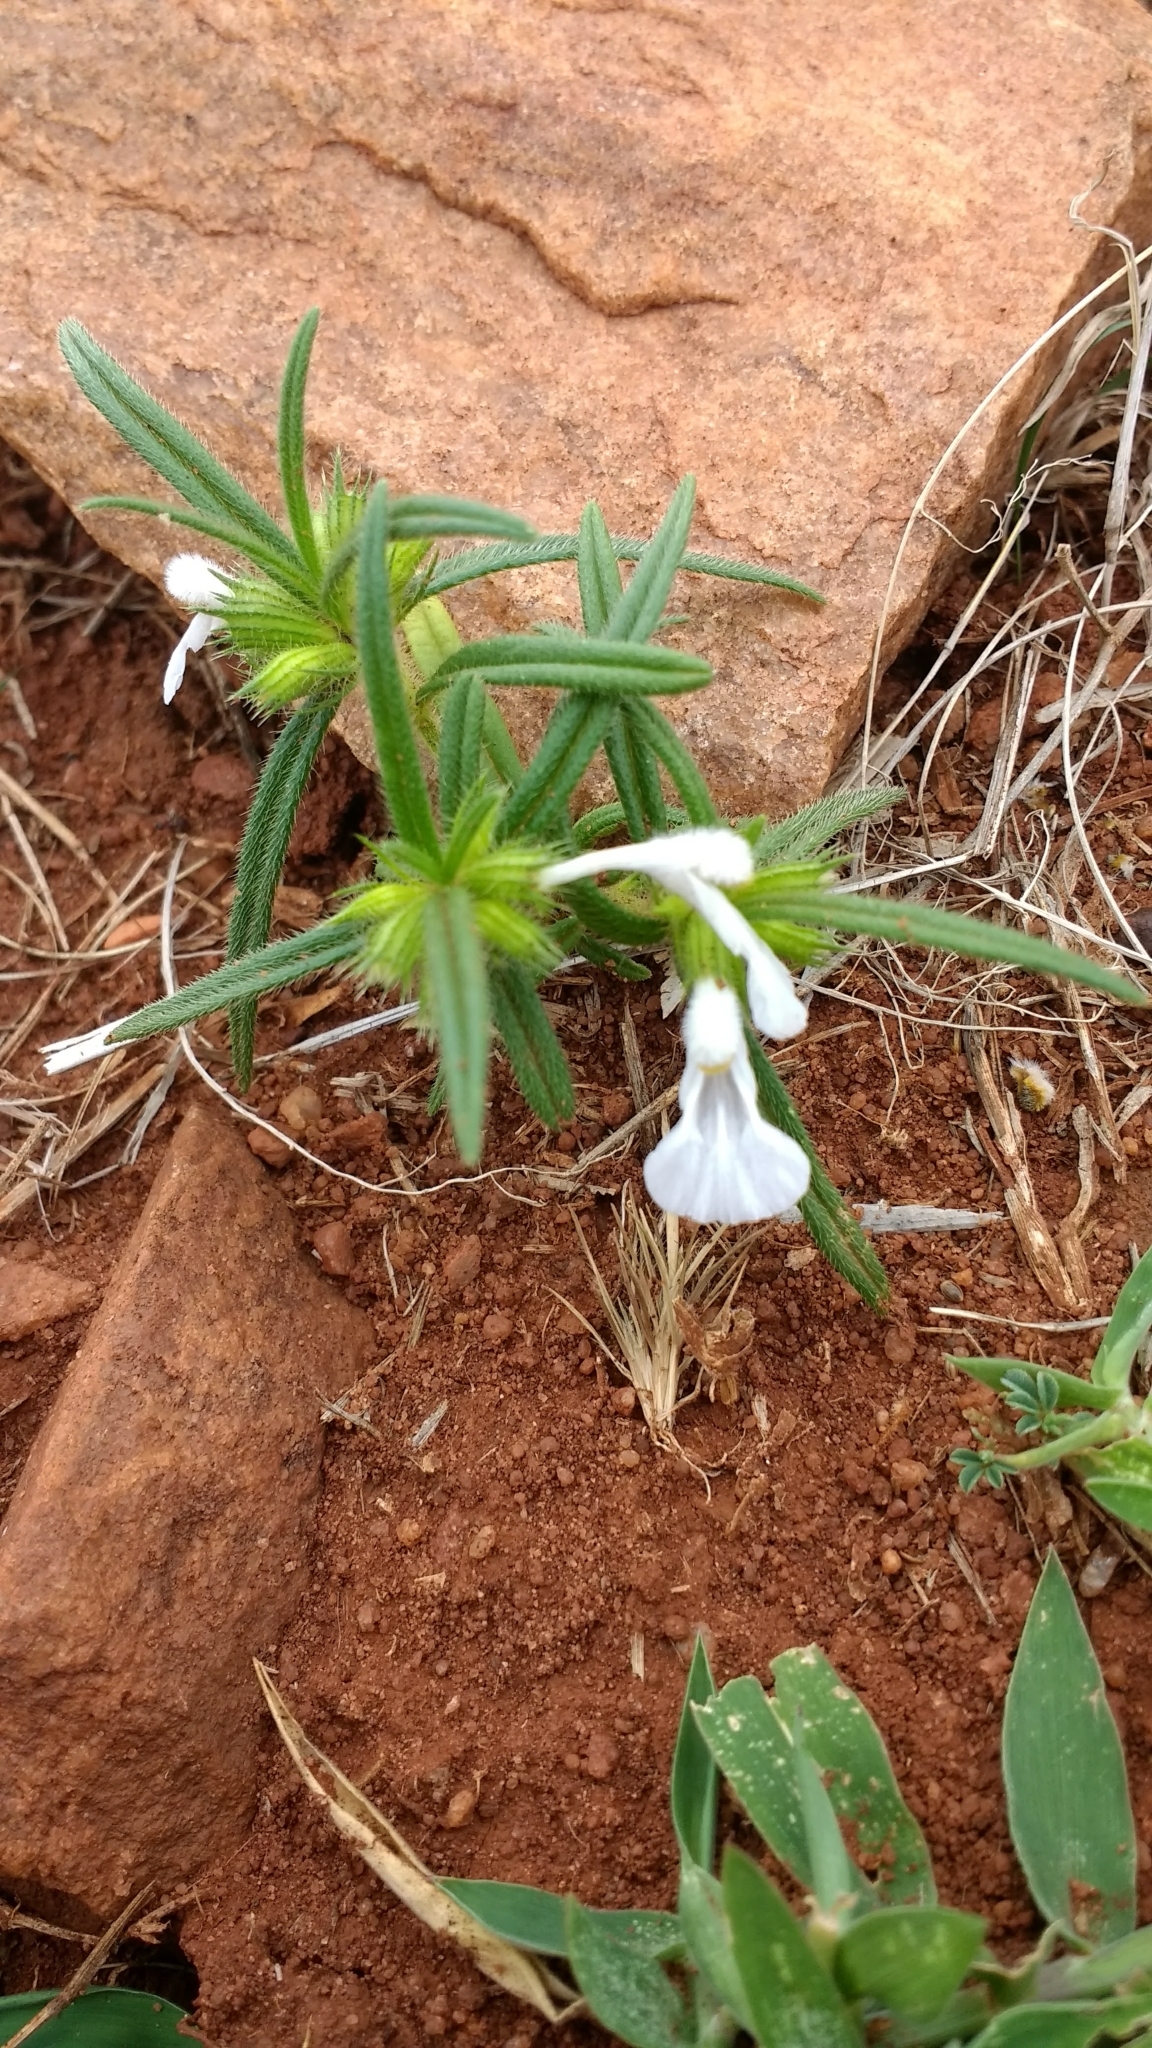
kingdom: Plantae
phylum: Tracheophyta
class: Magnoliopsida
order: Lamiales
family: Lamiaceae
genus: Leucas
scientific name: Leucas stricta
